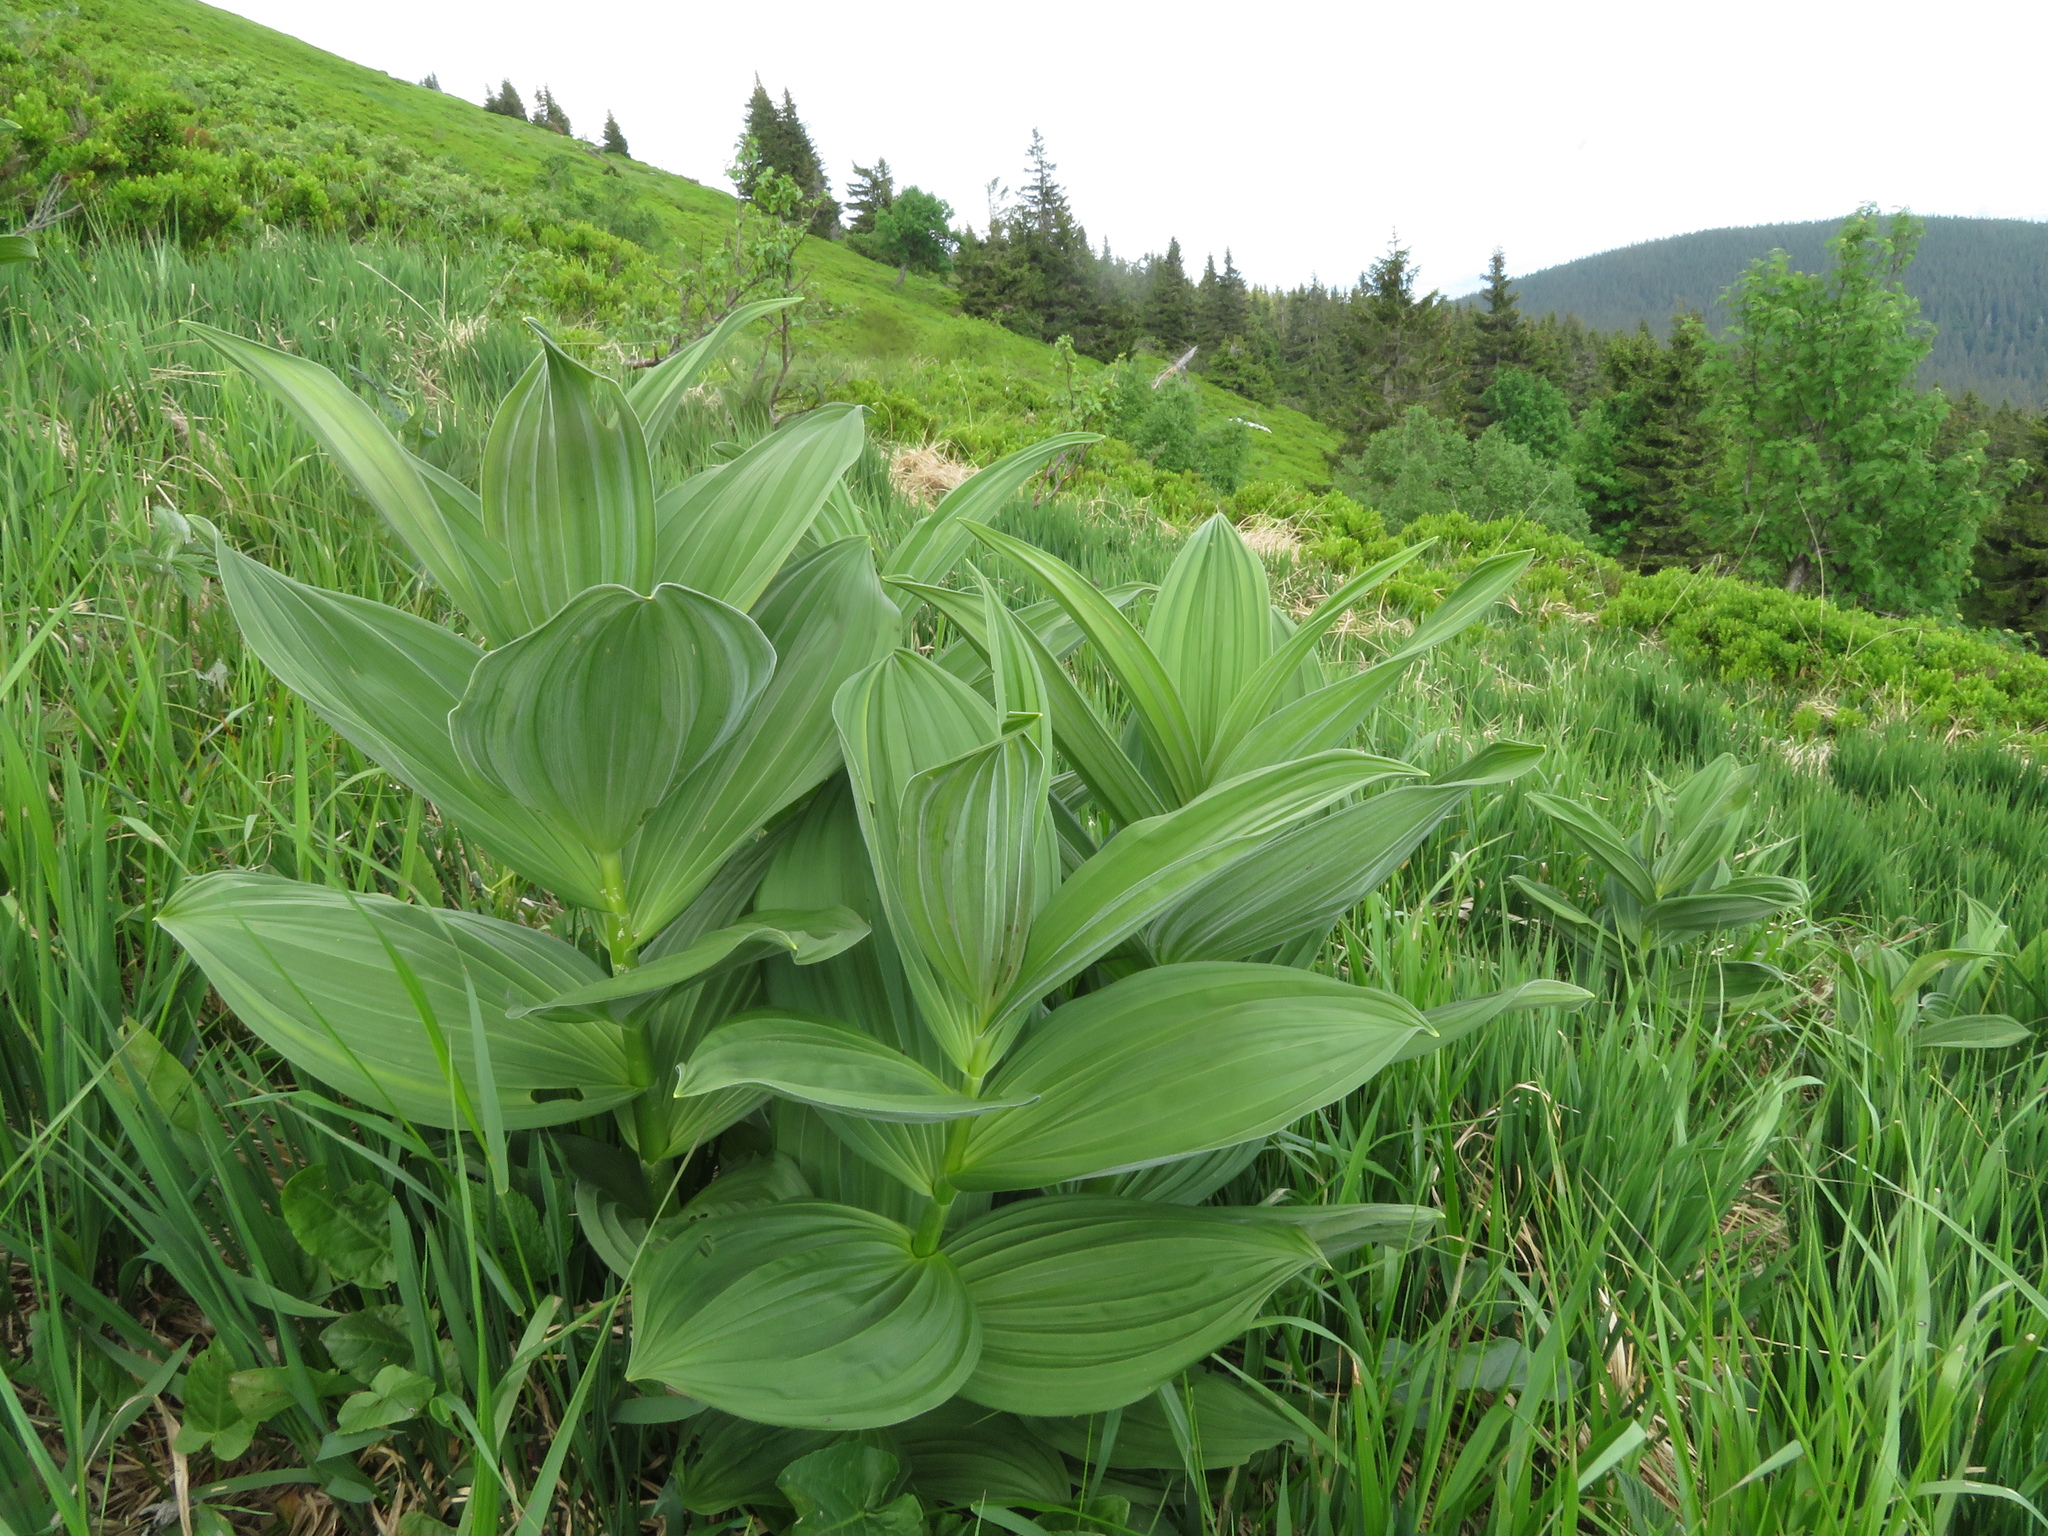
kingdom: Plantae
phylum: Tracheophyta
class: Liliopsida
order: Liliales
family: Melanthiaceae
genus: Veratrum
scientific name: Veratrum lobelianum
